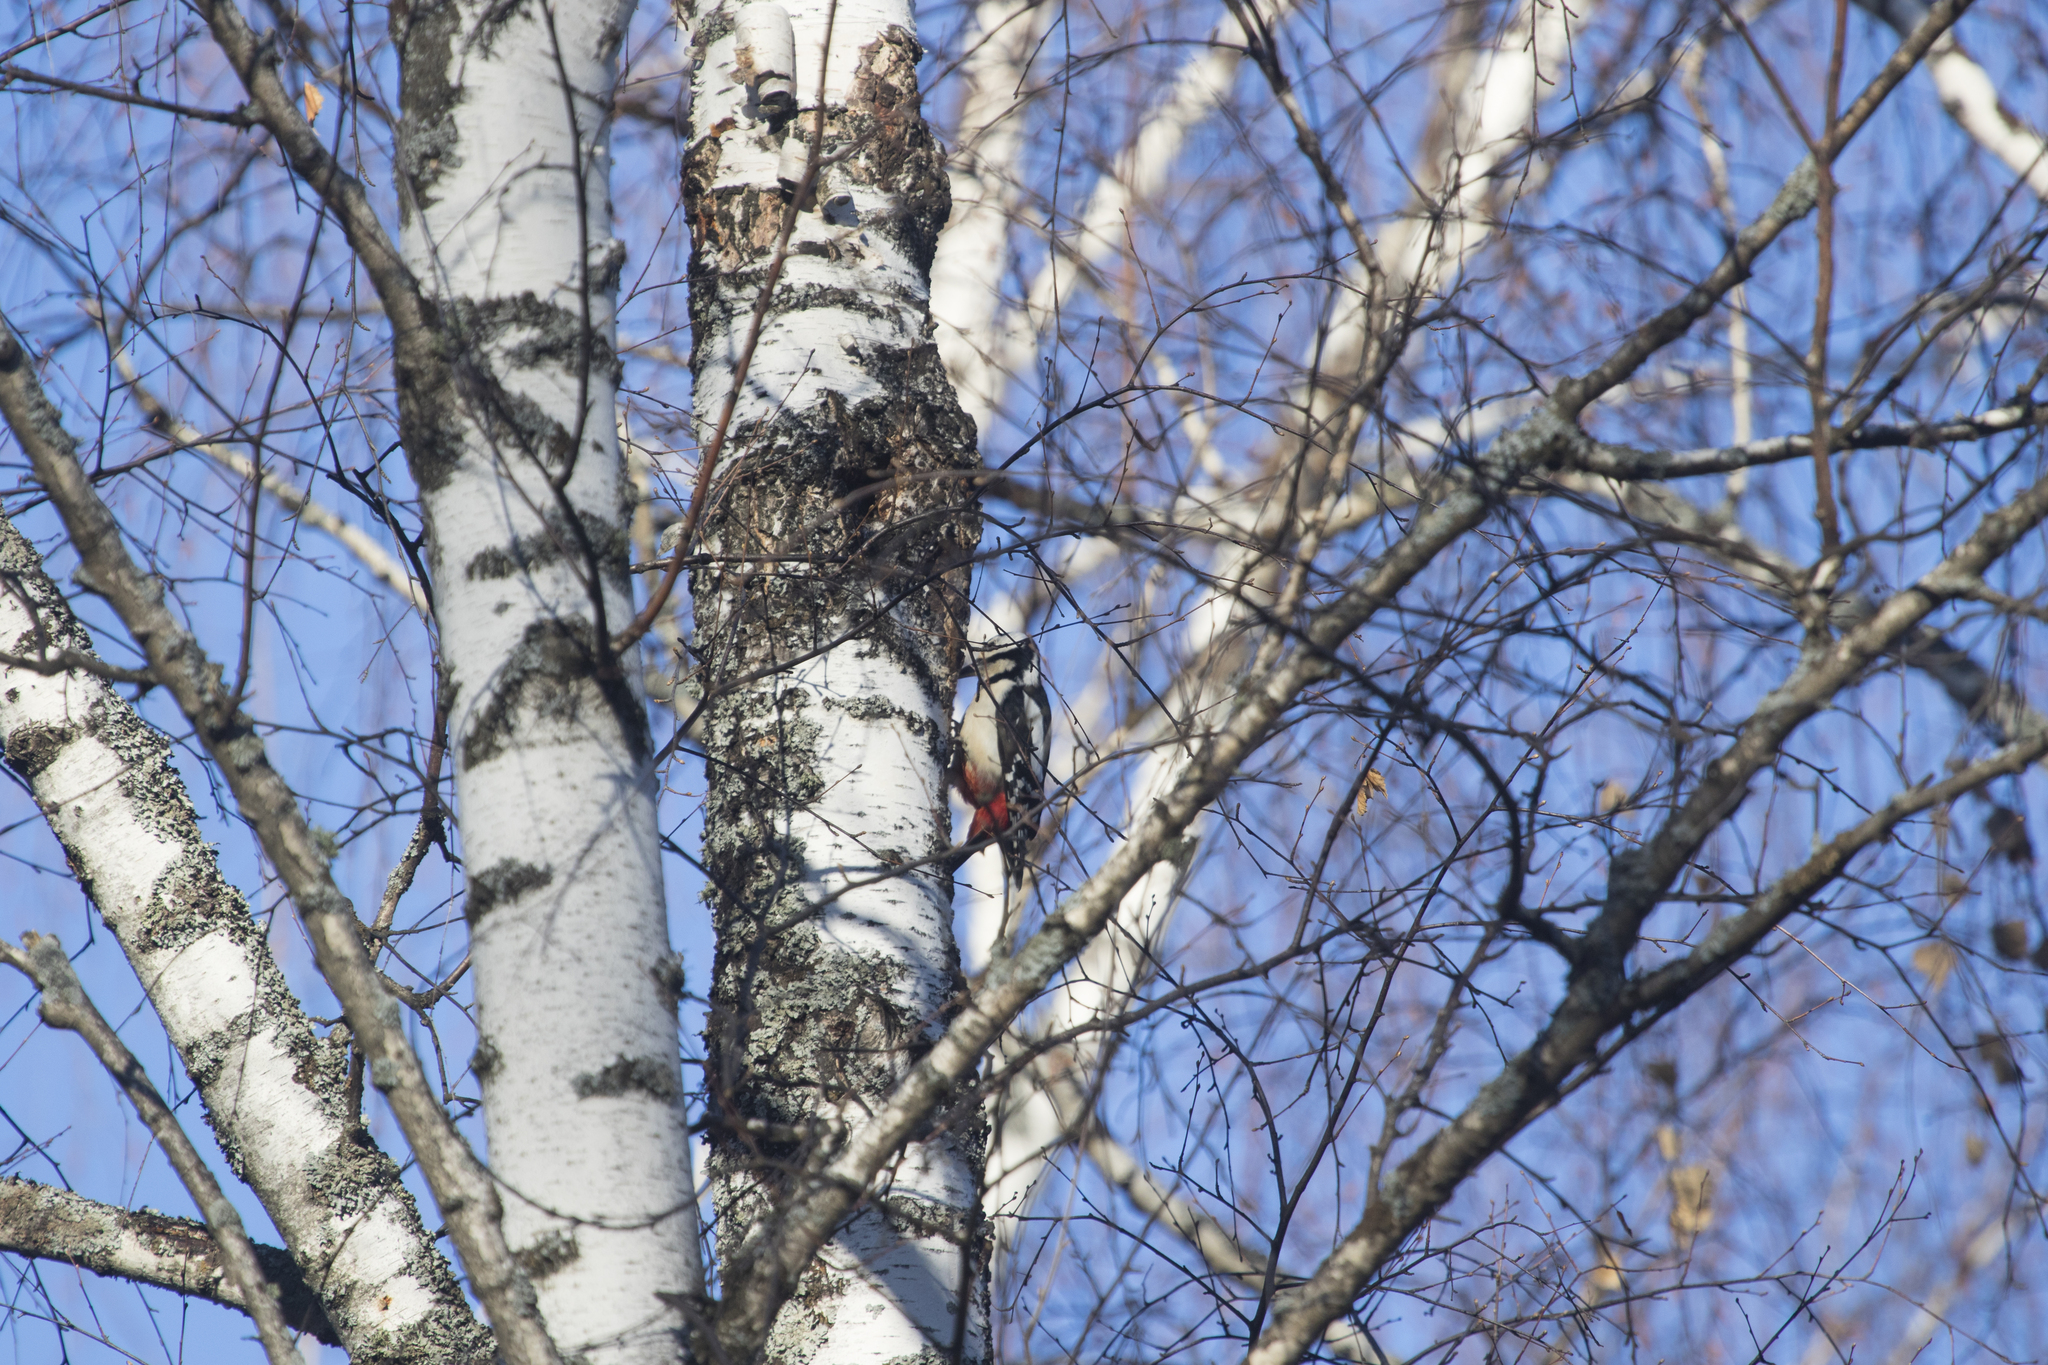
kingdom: Animalia
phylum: Chordata
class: Aves
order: Piciformes
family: Picidae
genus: Dendrocopos
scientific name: Dendrocopos major
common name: Great spotted woodpecker
